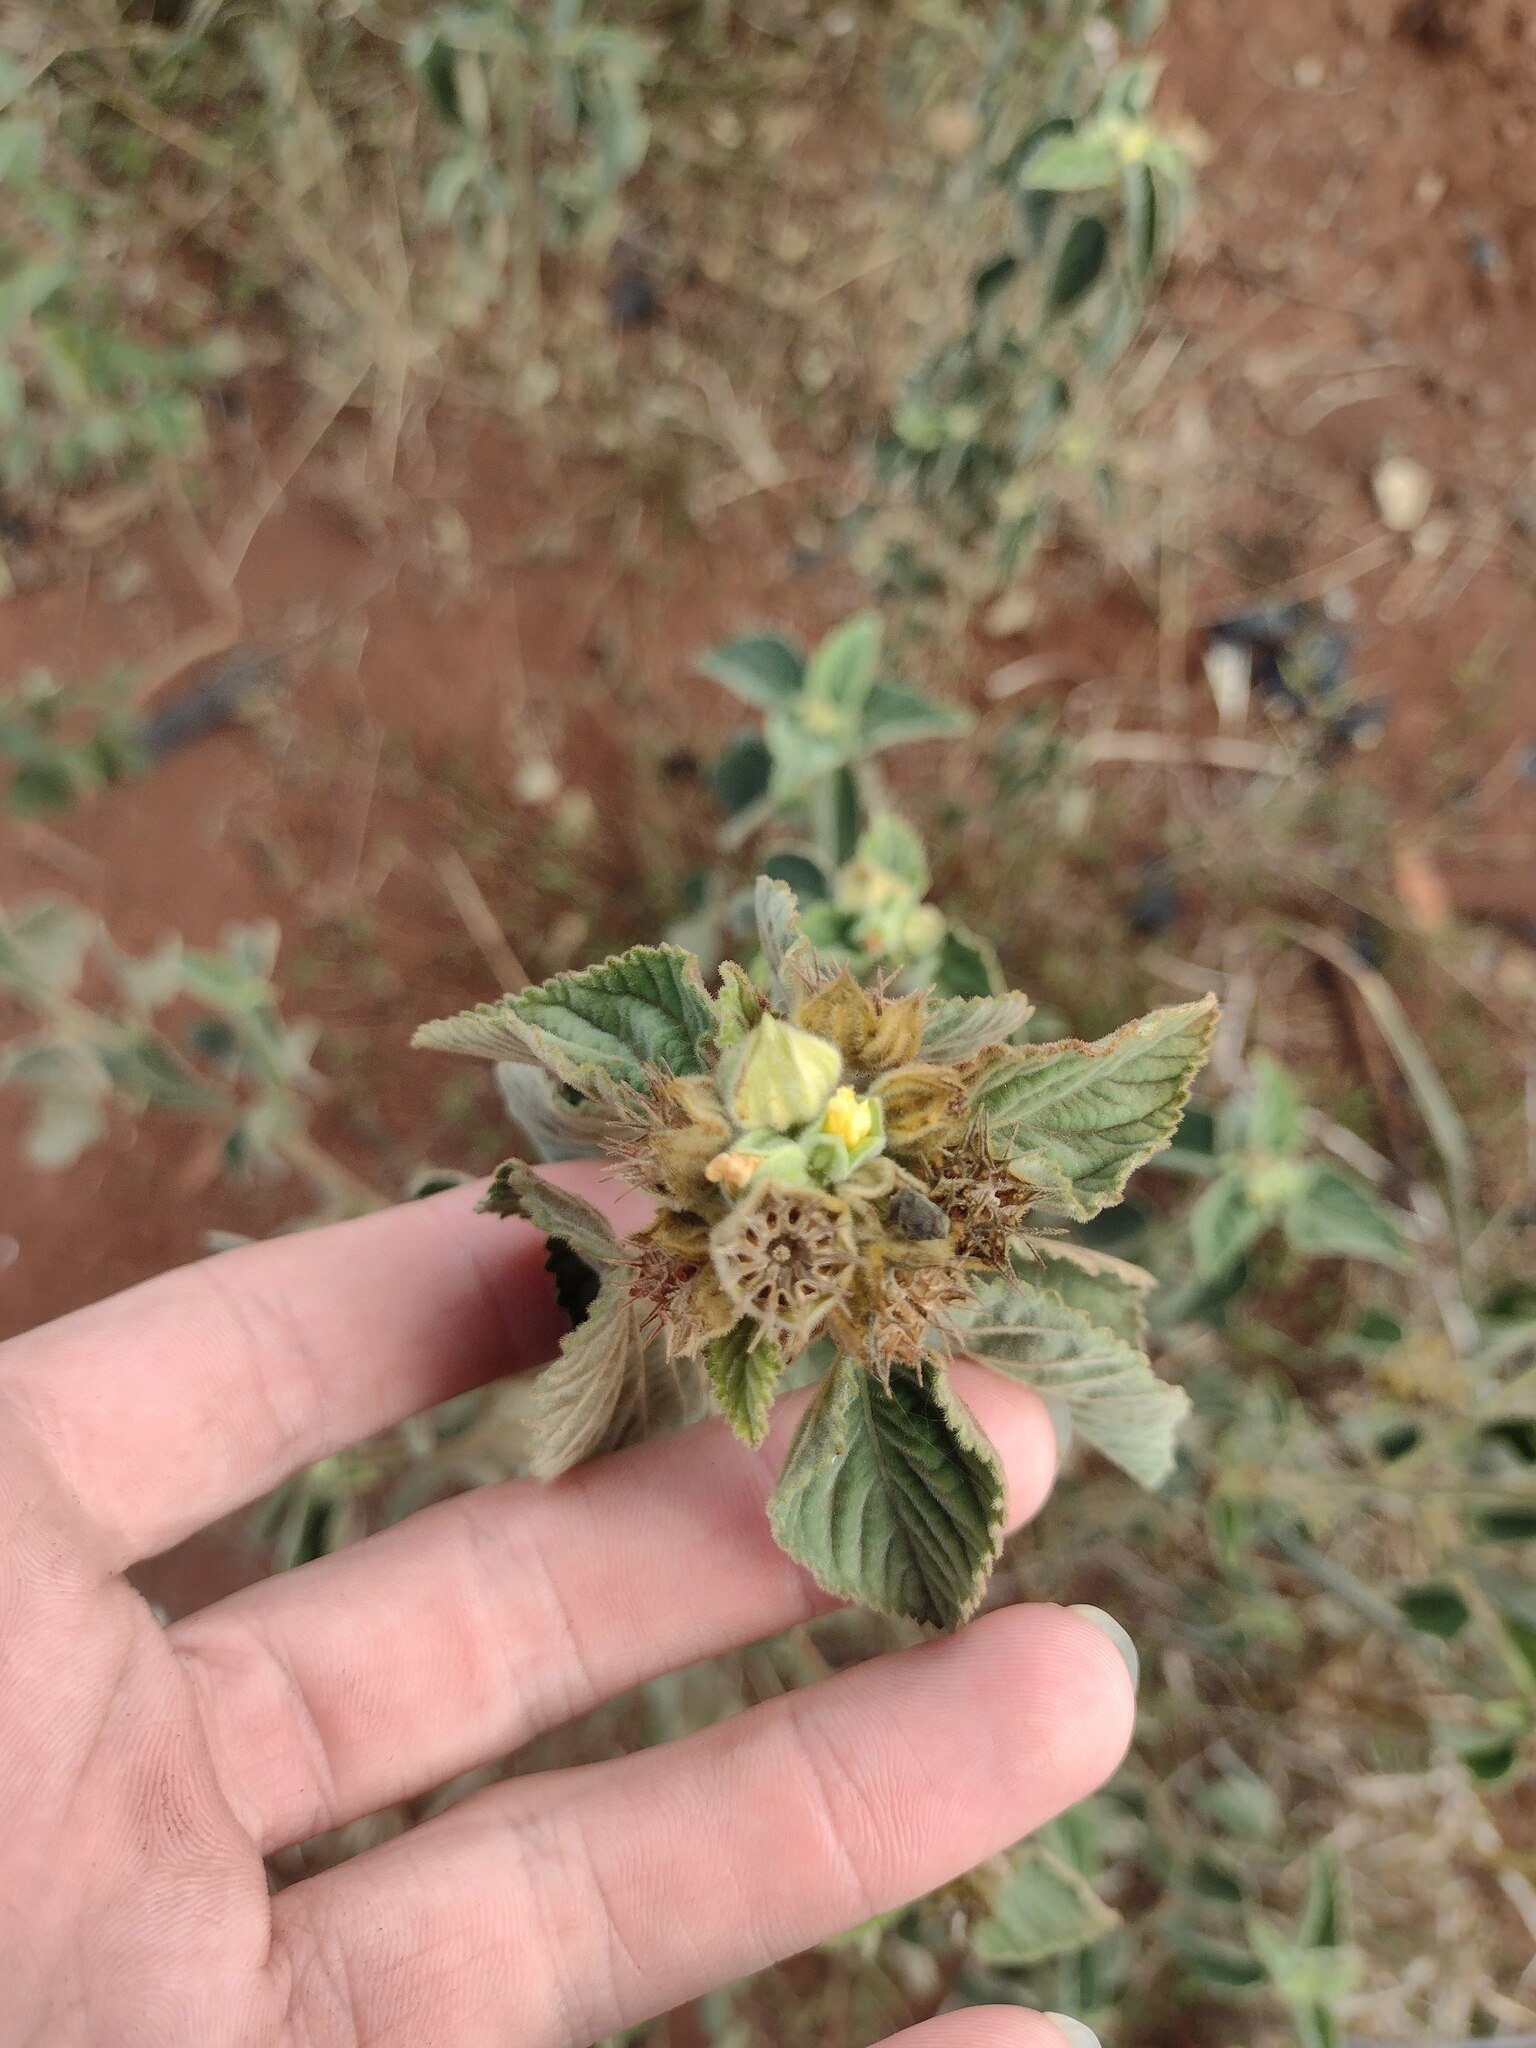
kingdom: Plantae
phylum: Tracheophyta
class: Magnoliopsida
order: Malvales
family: Malvaceae
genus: Sida
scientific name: Sida cordifolia
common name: Ilima
